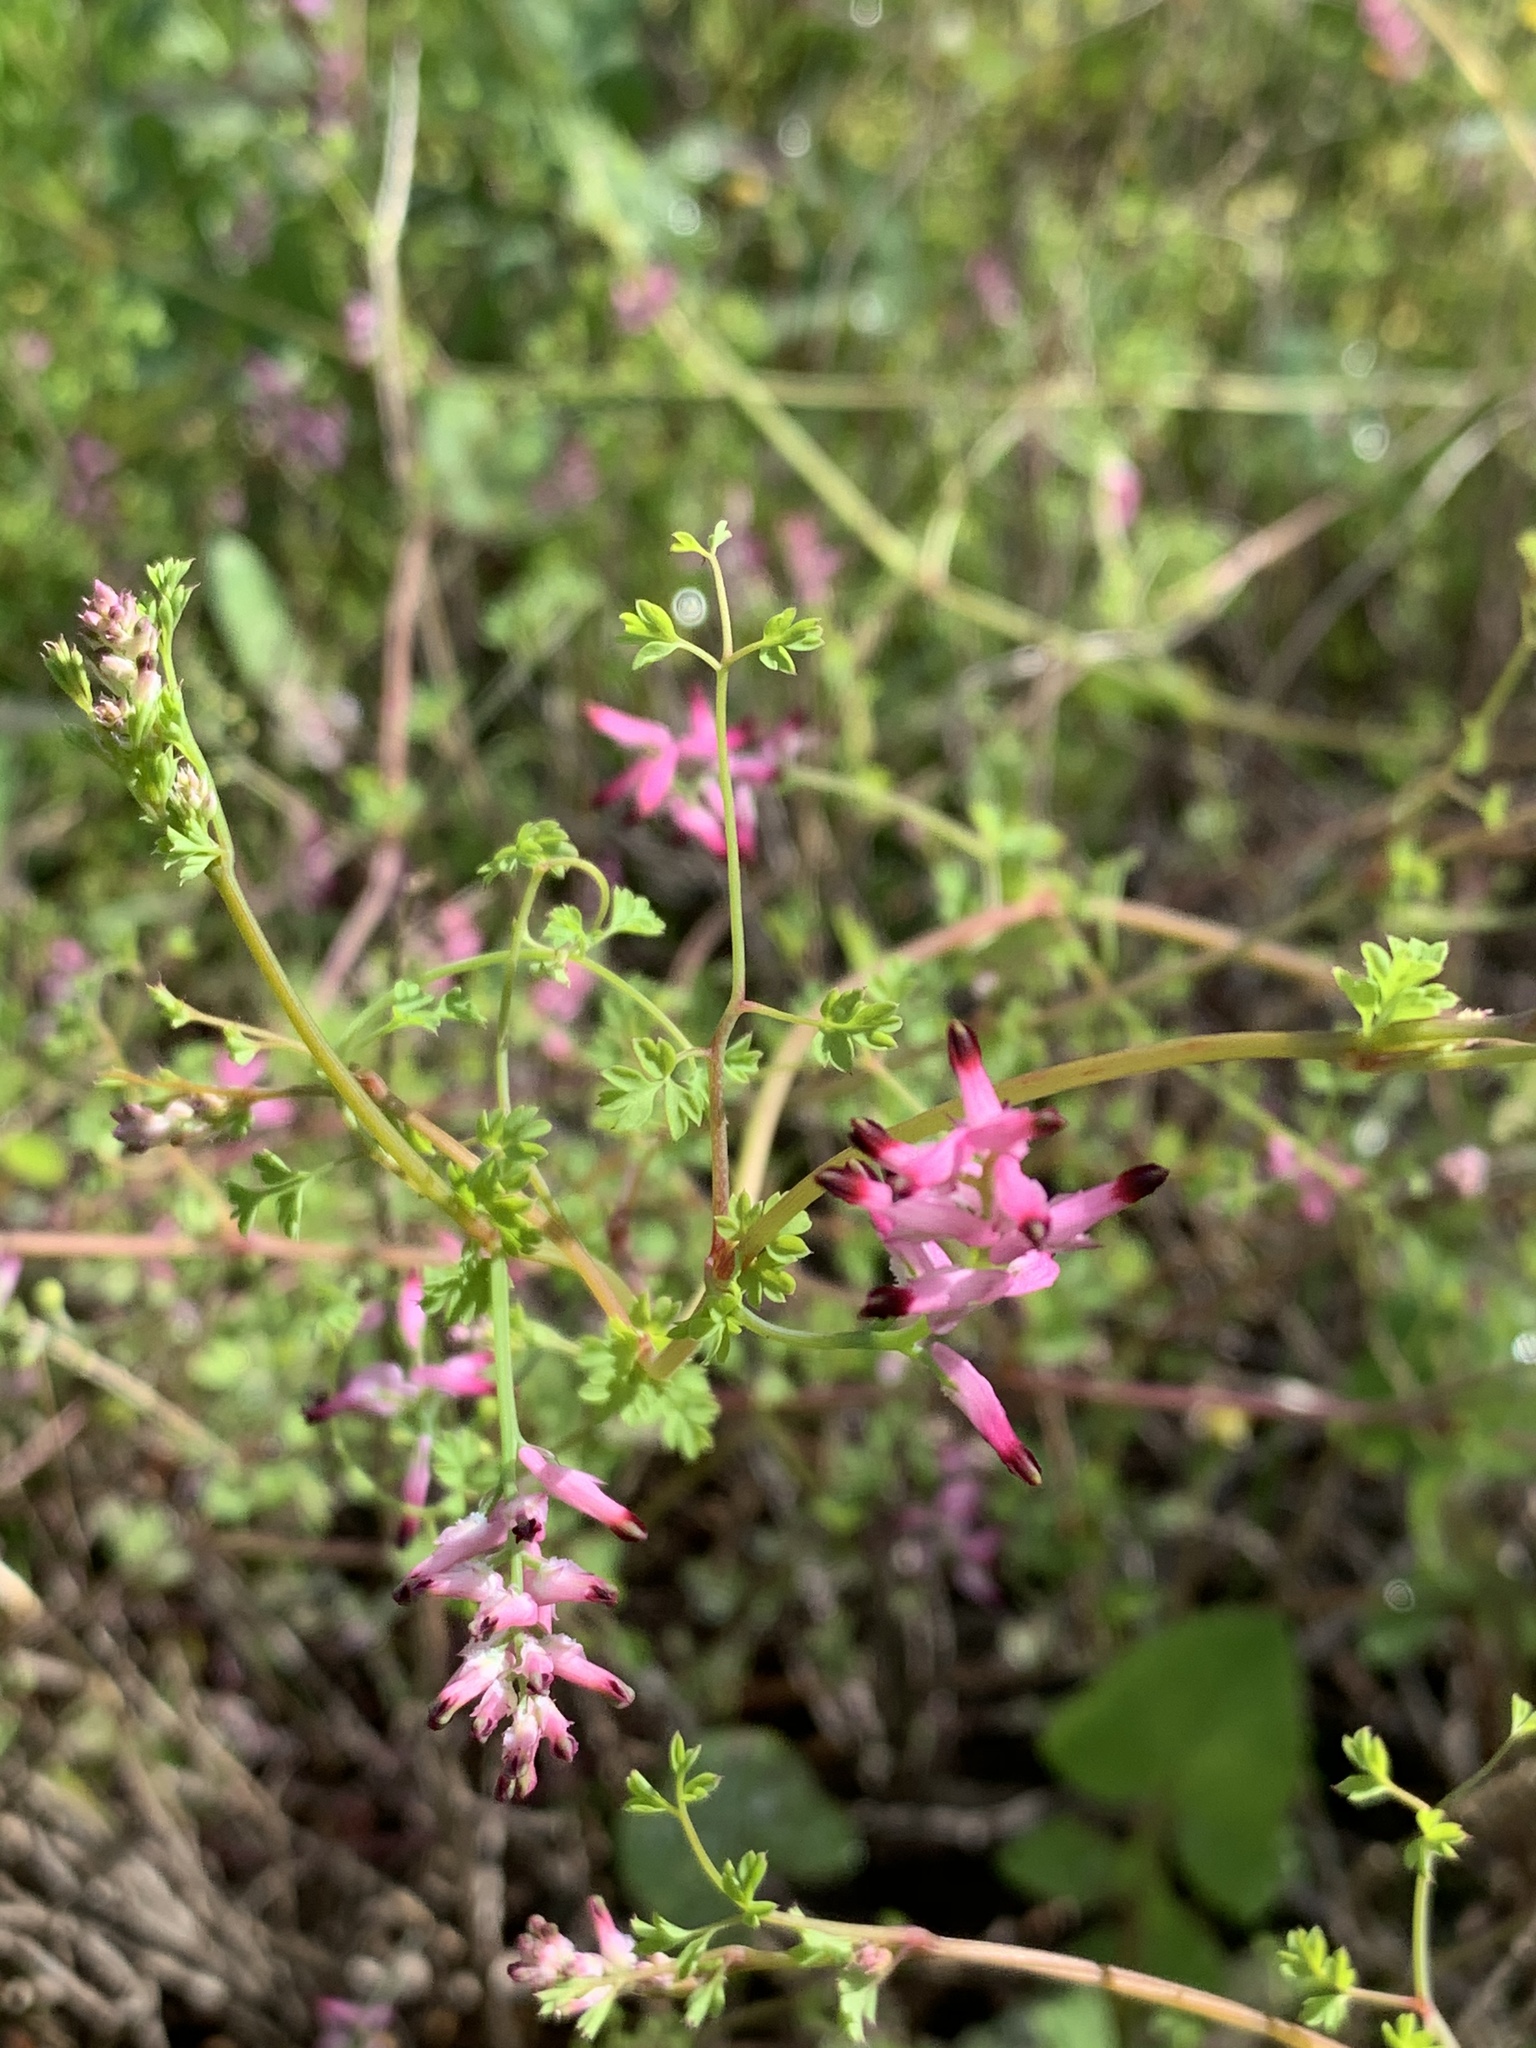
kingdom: Plantae
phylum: Tracheophyta
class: Magnoliopsida
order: Ranunculales
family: Papaveraceae
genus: Fumaria
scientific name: Fumaria muralis
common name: Common ramping-fumitory
